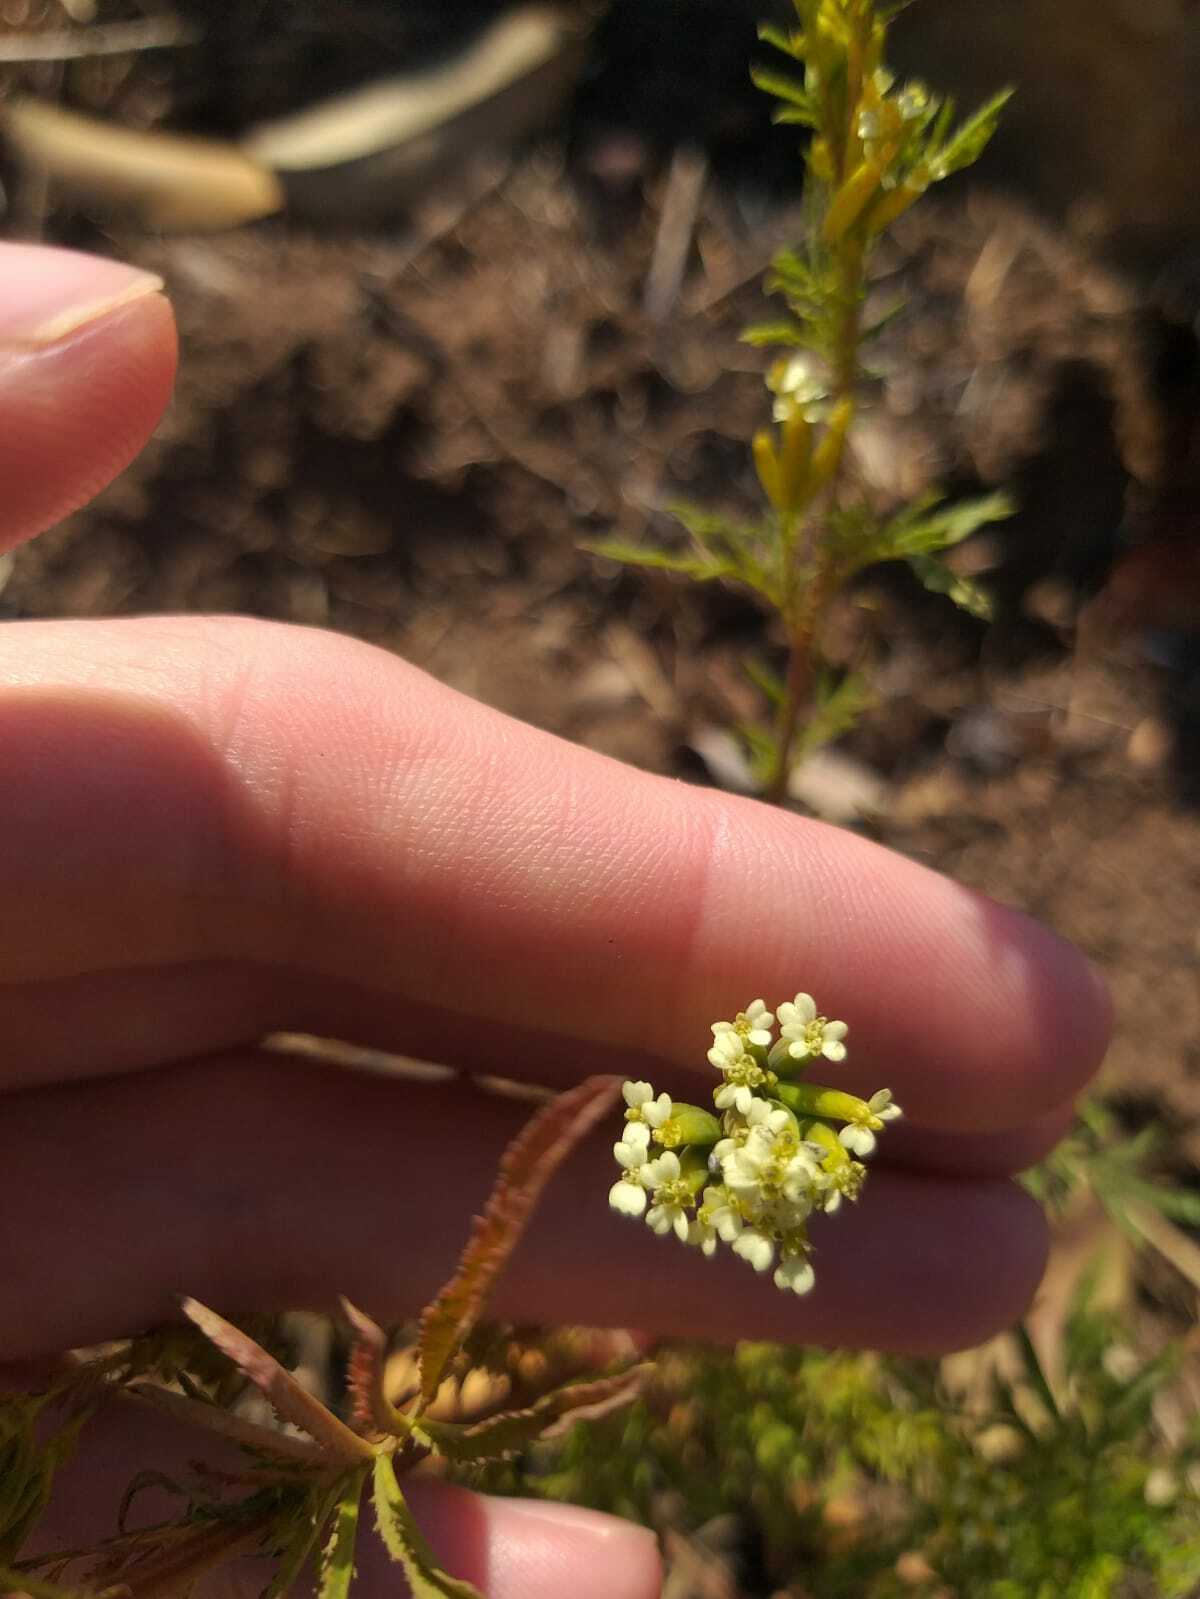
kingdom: Plantae
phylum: Tracheophyta
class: Magnoliopsida
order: Asterales
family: Asteraceae
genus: Tagetes
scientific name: Tagetes minuta
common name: Muster john henry
